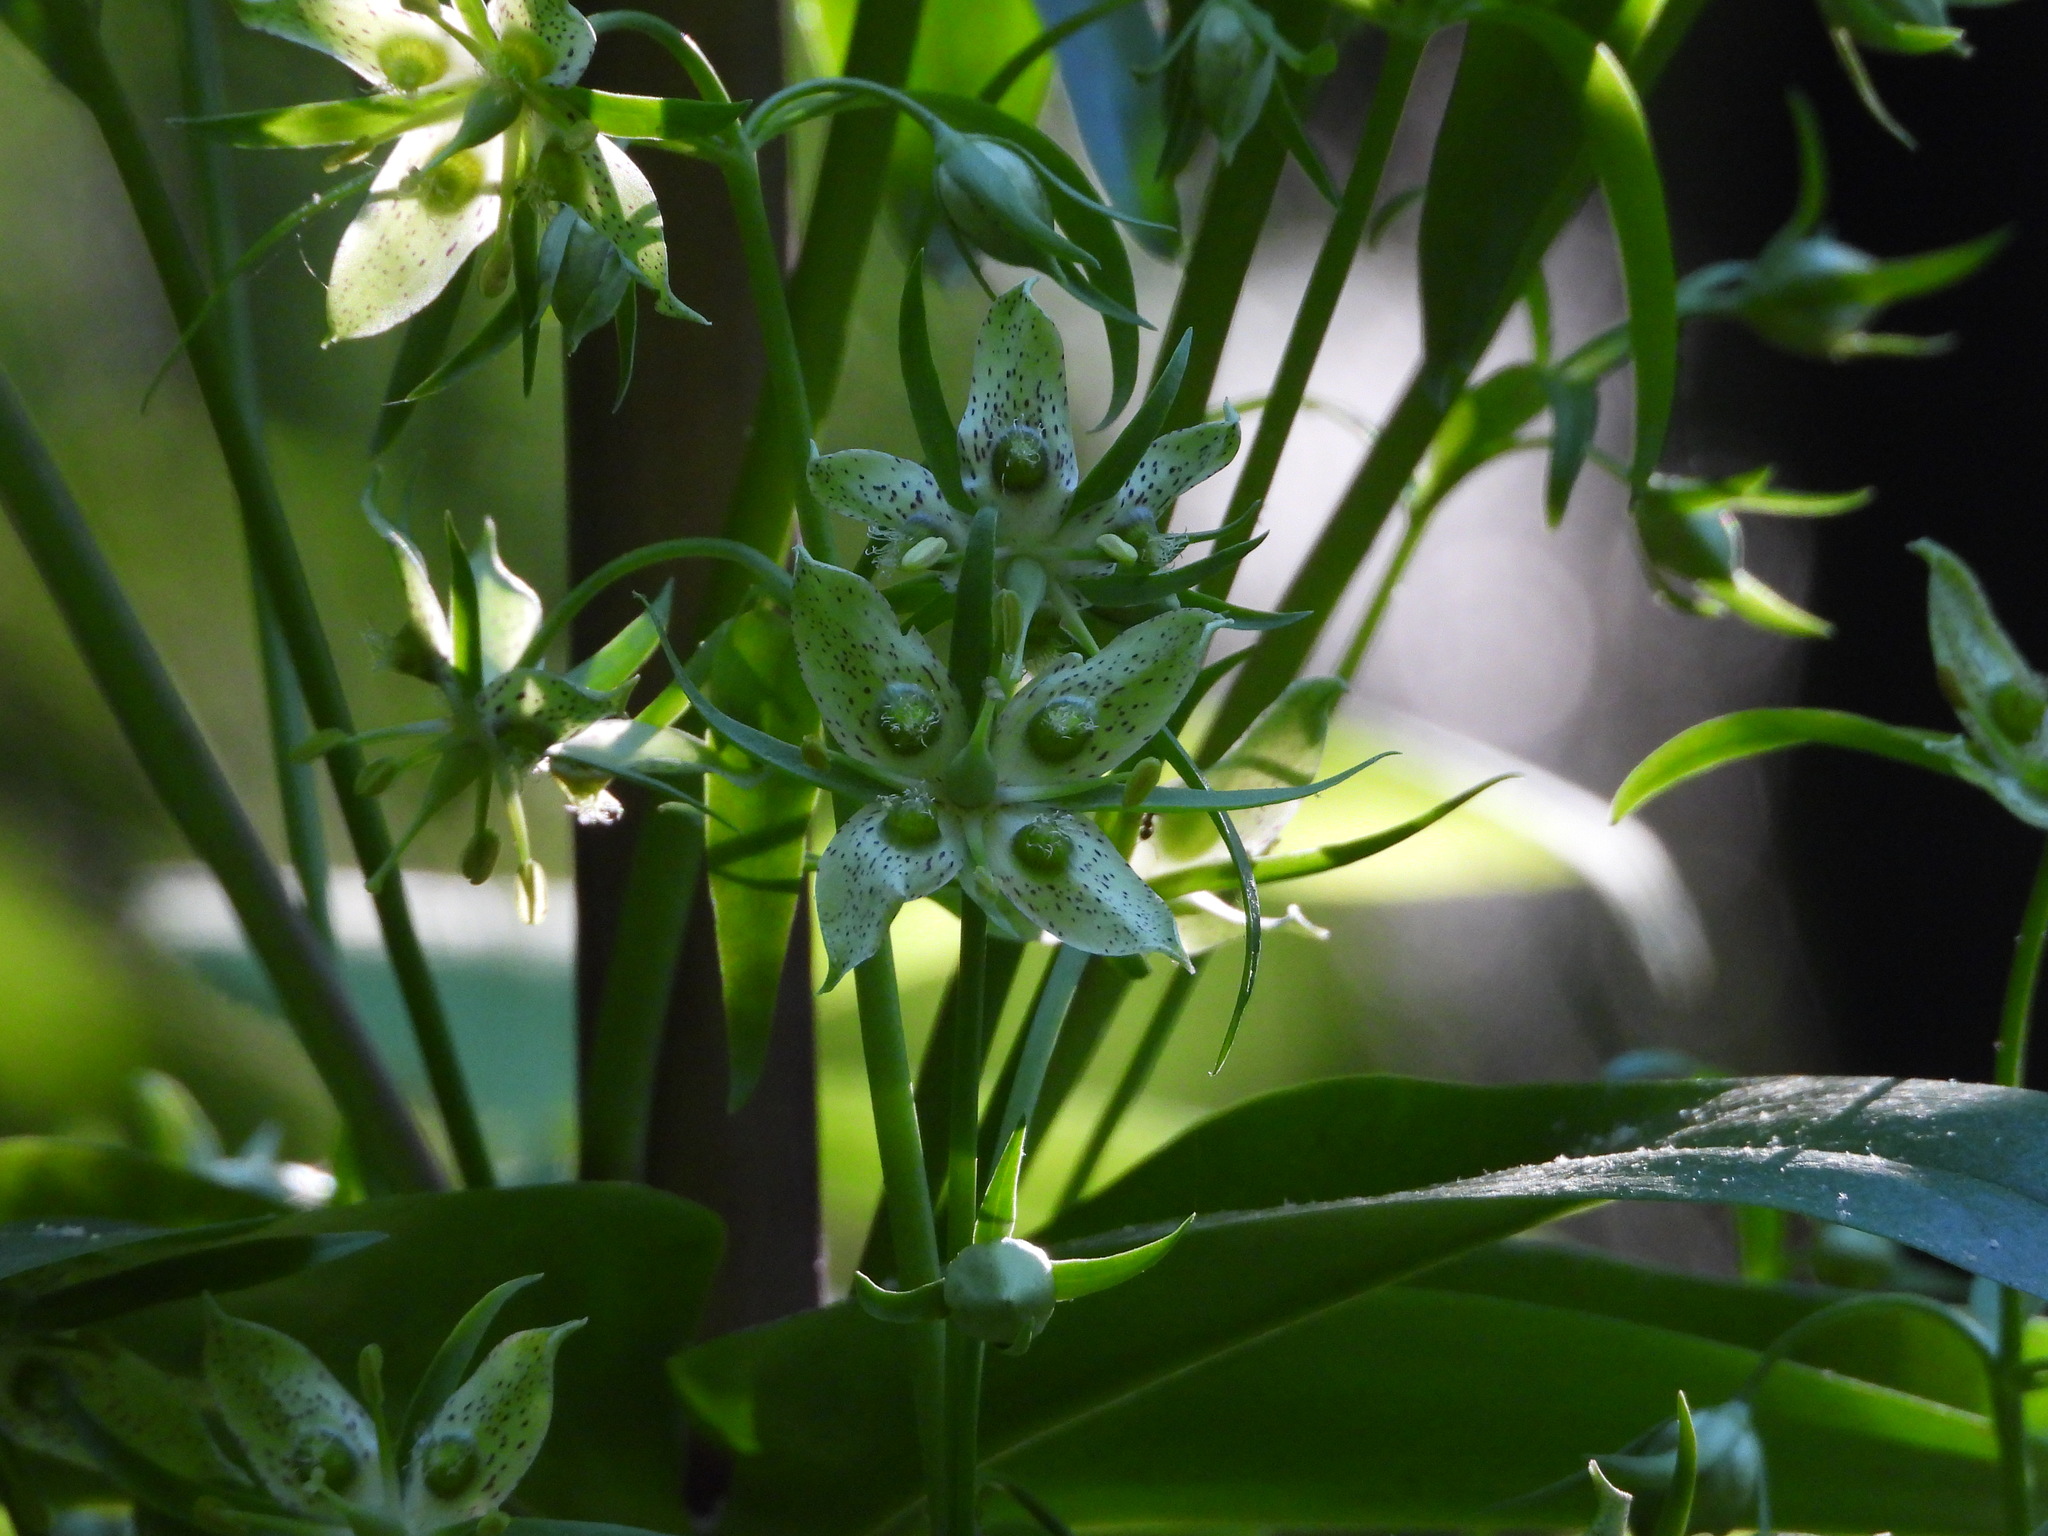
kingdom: Plantae
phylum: Tracheophyta
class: Magnoliopsida
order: Gentianales
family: Gentianaceae
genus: Frasera
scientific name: Frasera caroliniensis
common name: American columbo
